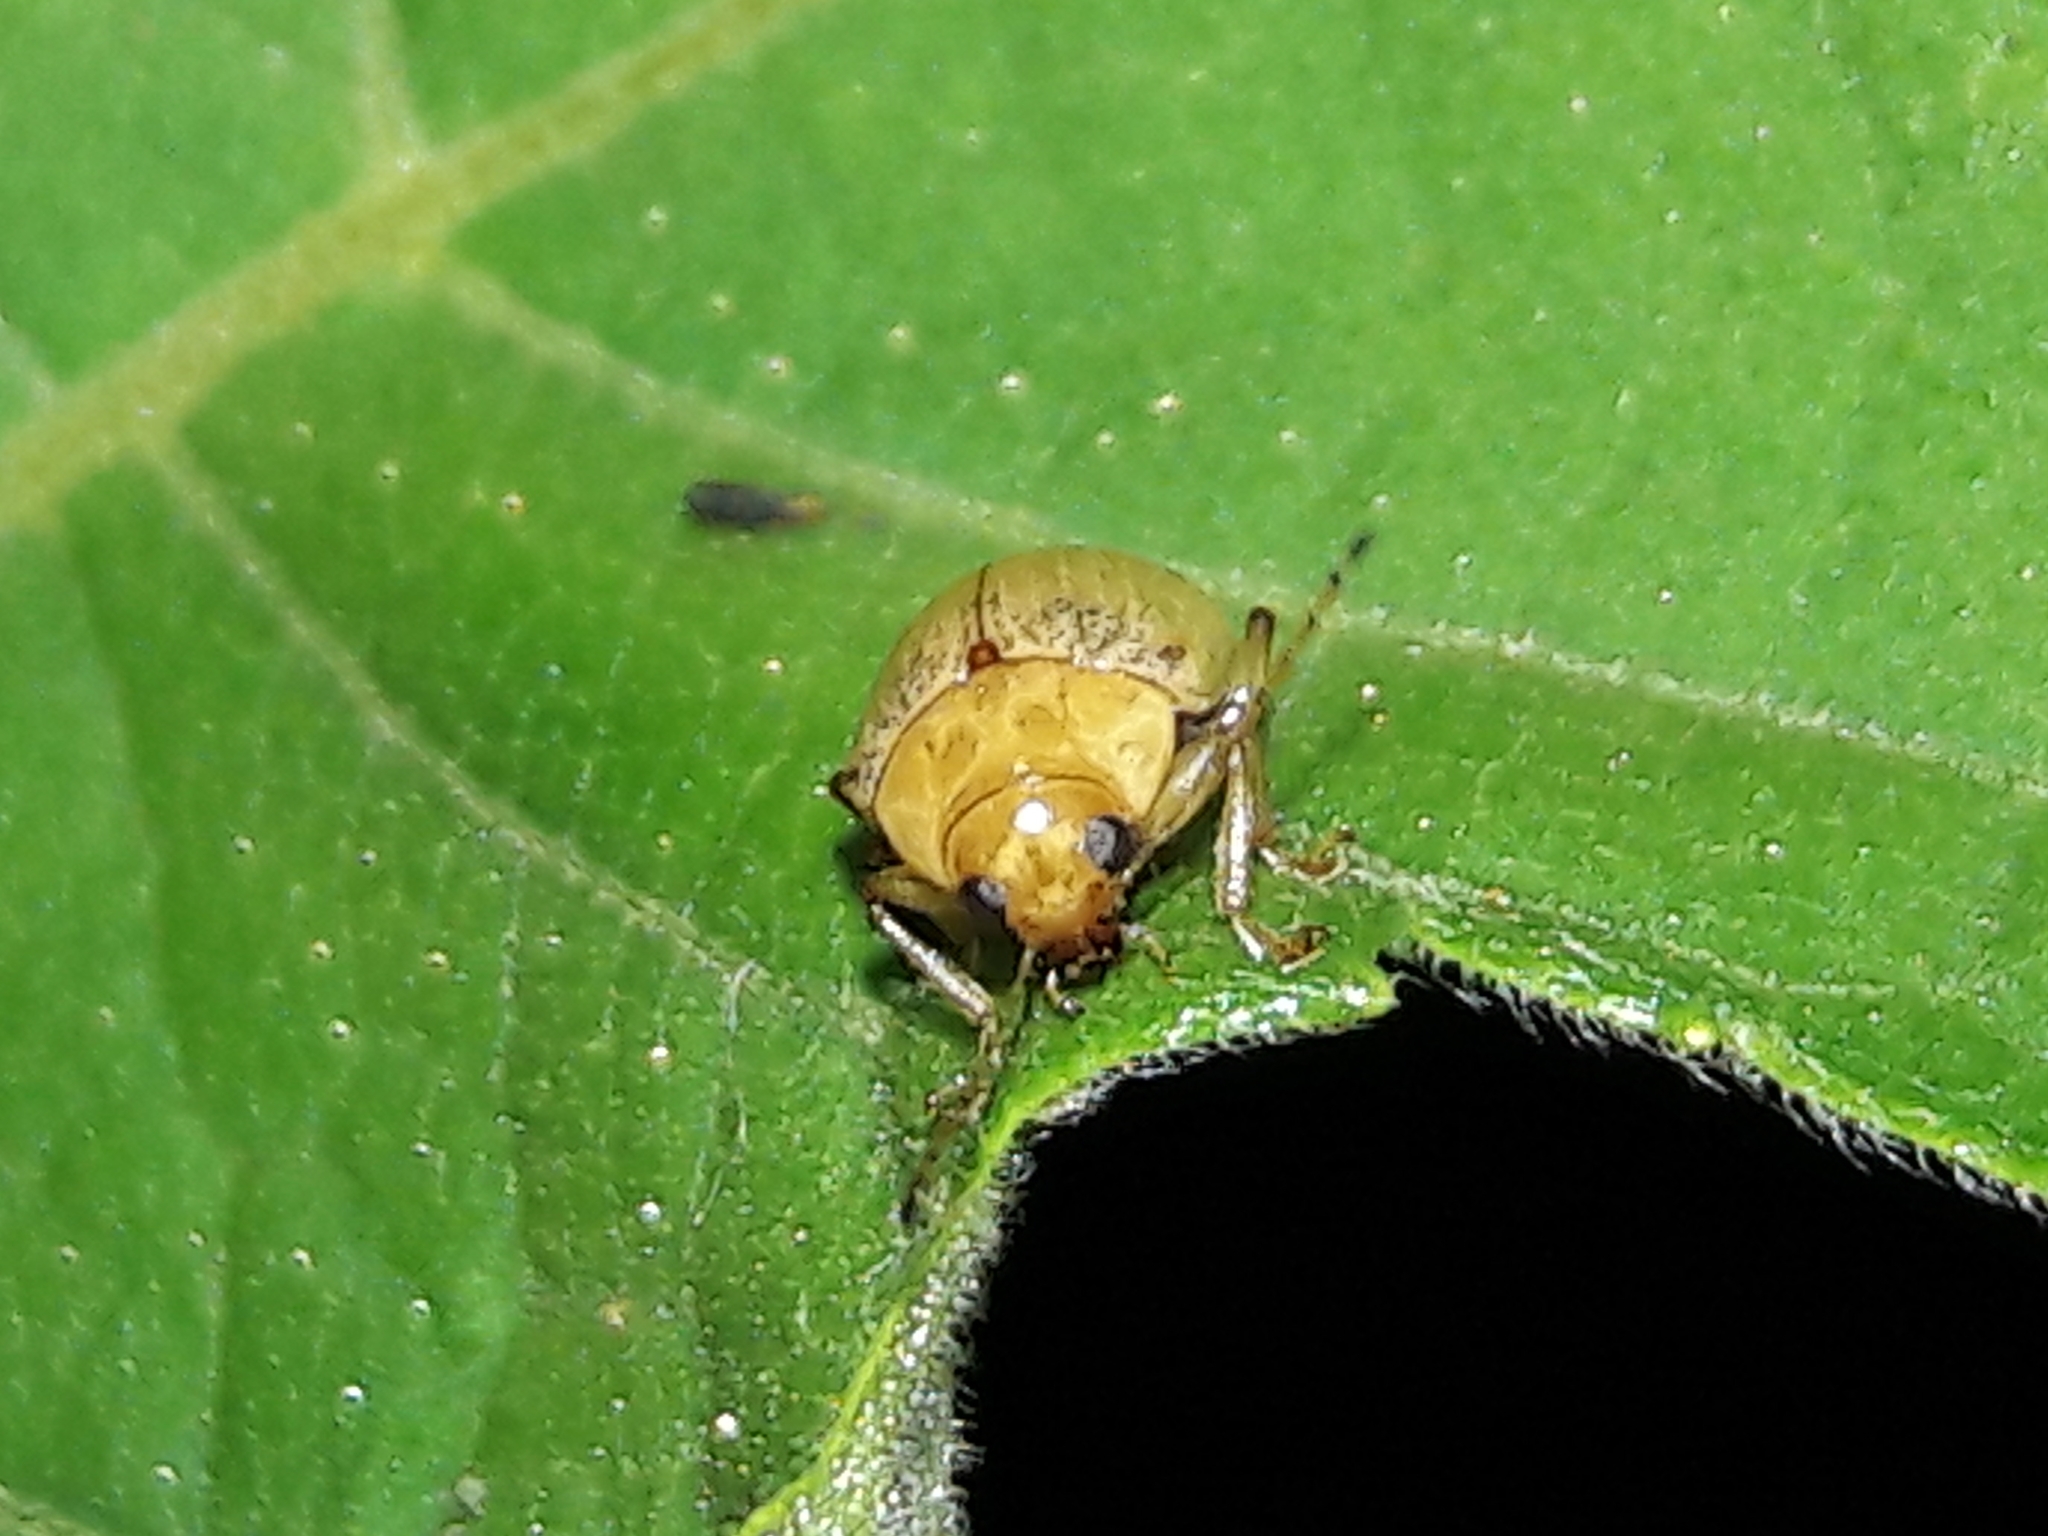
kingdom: Animalia
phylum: Arthropoda
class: Insecta
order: Coleoptera
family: Chrysomelidae
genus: Anisodera
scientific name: Anisodera ferruginea
